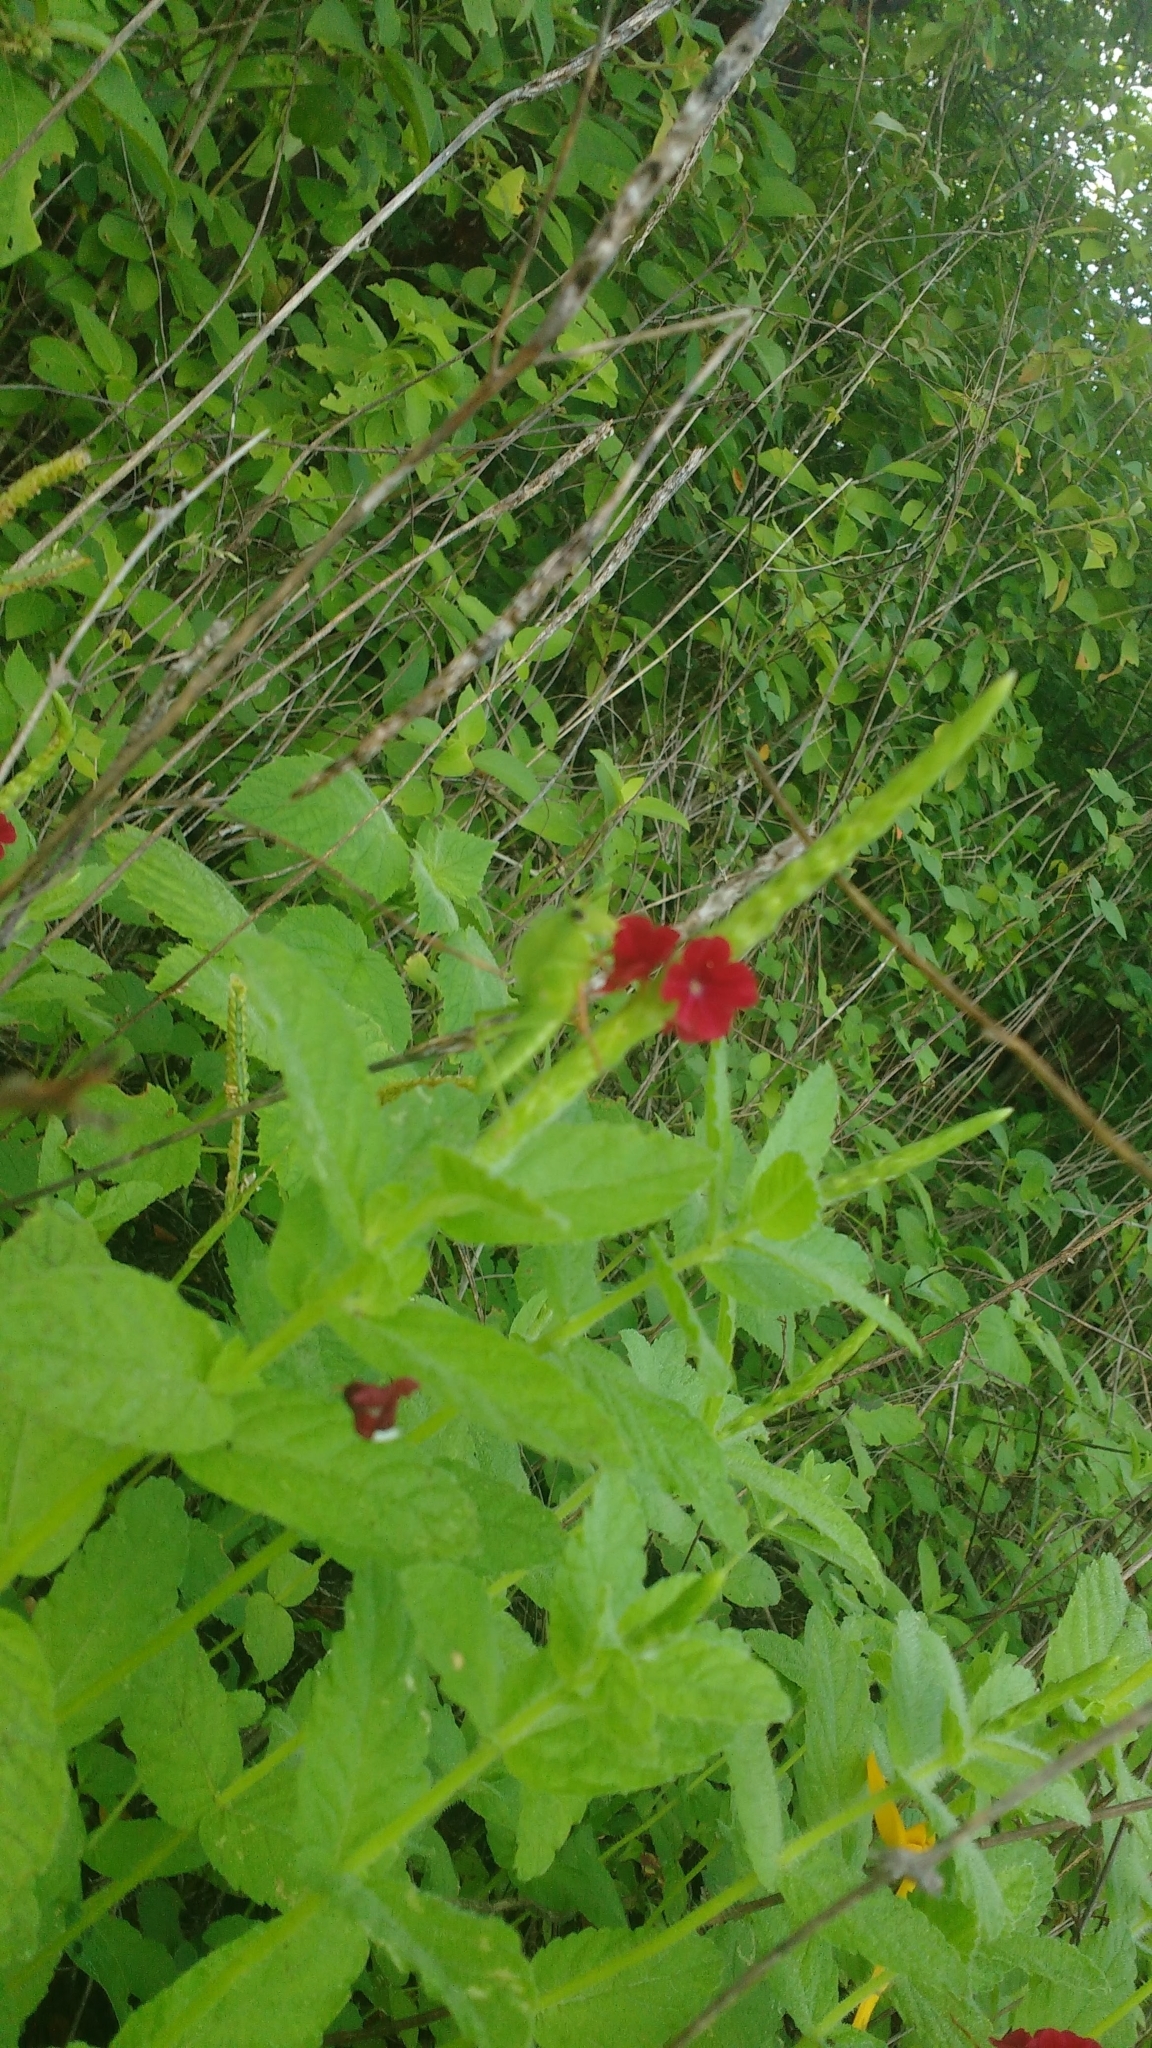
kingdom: Plantae
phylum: Tracheophyta
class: Magnoliopsida
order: Lamiales
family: Verbenaceae
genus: Stachytarpheta
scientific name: Stachytarpheta sessilis
